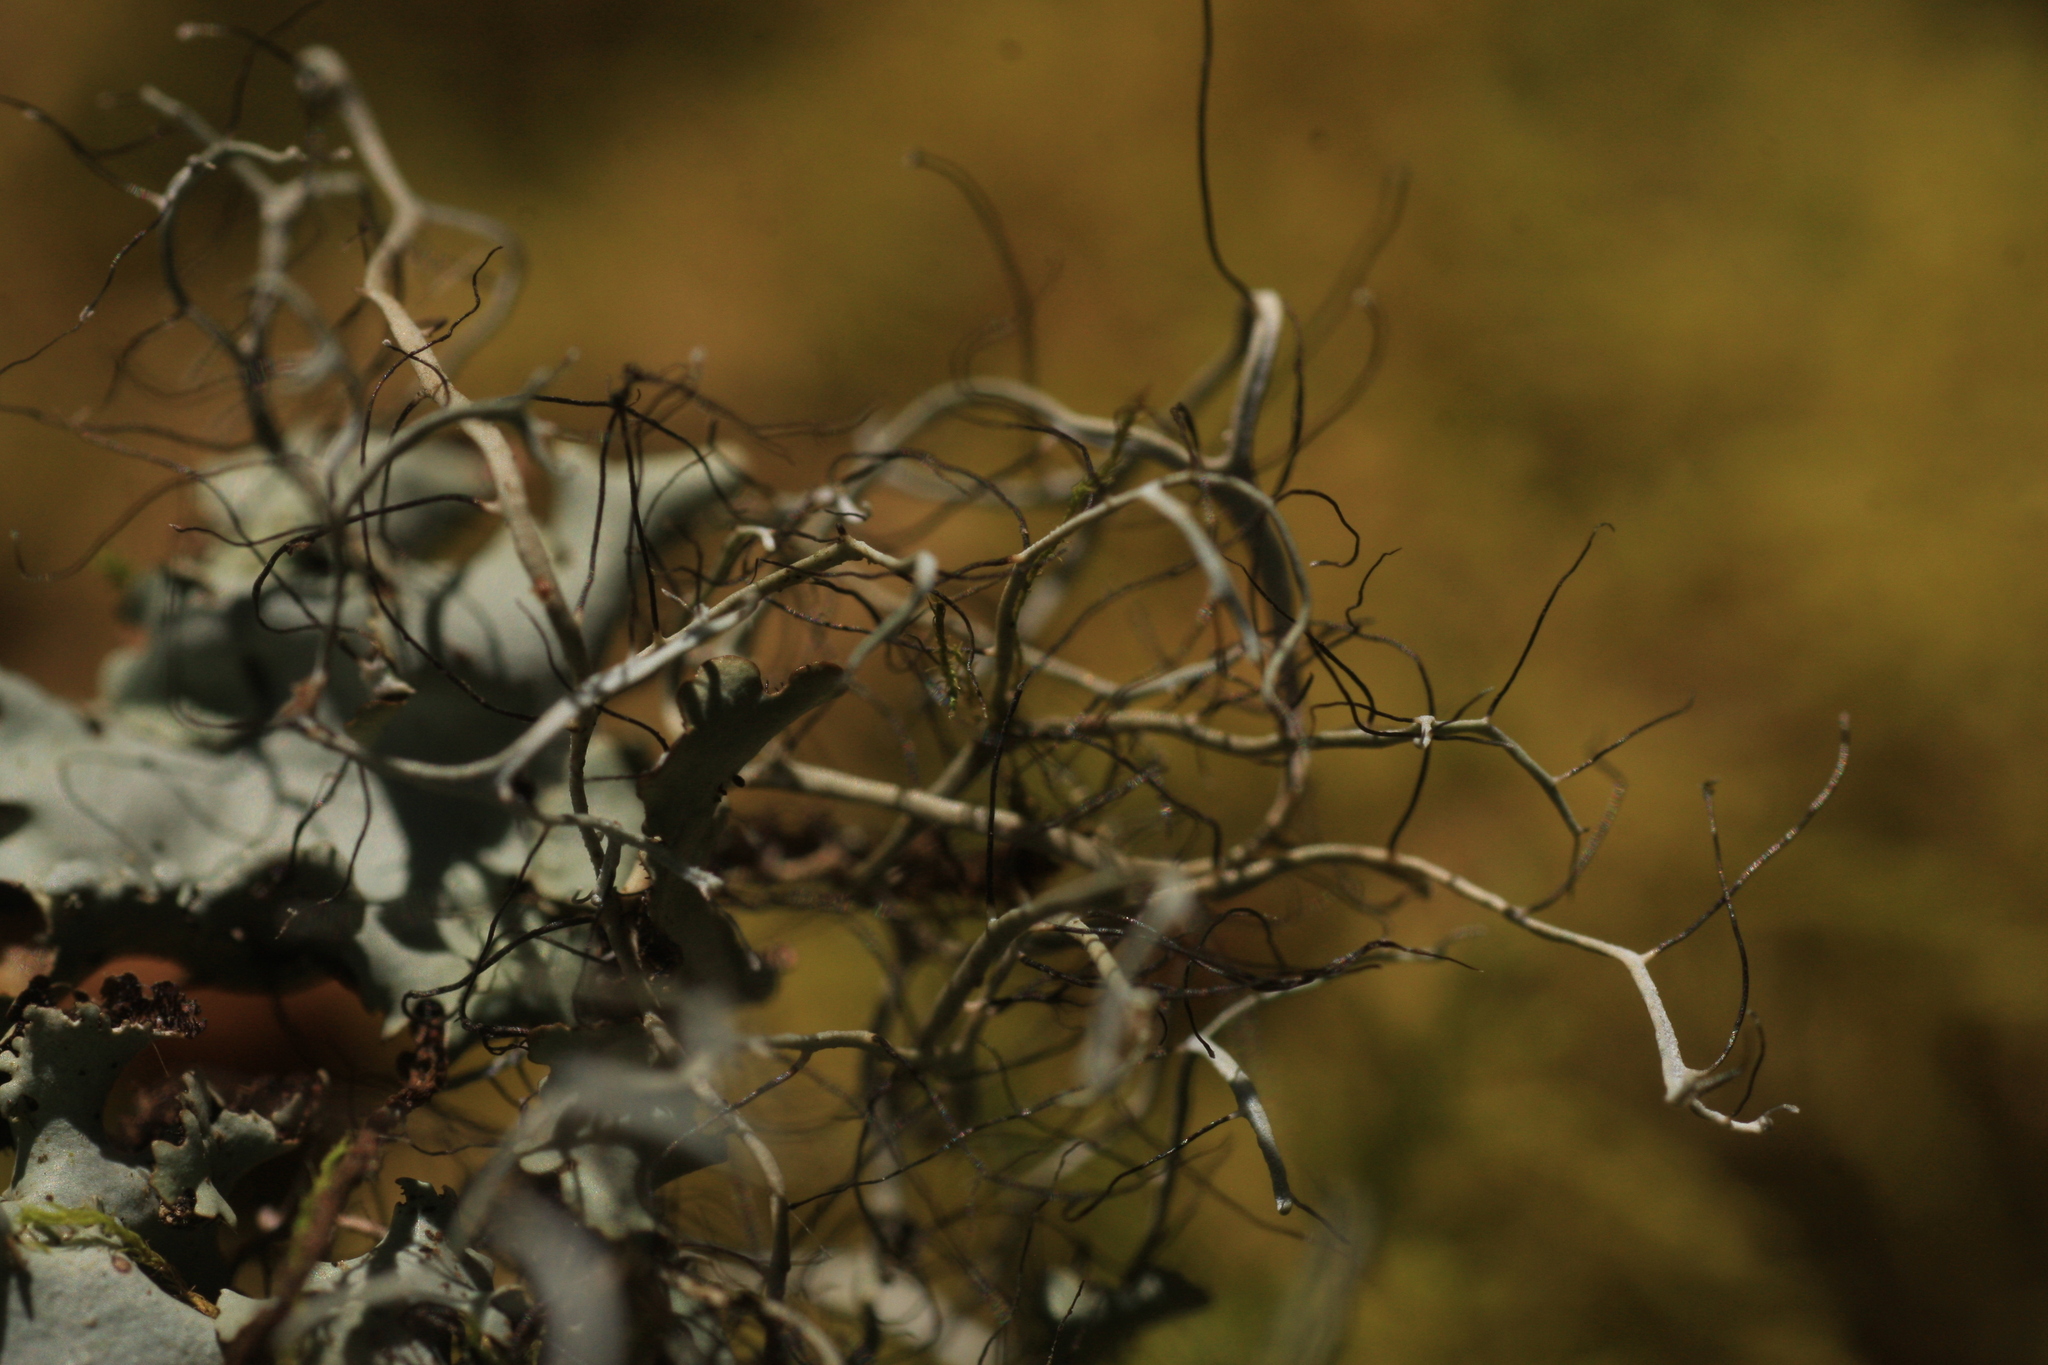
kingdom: Fungi
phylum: Ascomycota
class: Lecanoromycetes
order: Caliciales
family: Physciaceae
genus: Leucodermia
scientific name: Leucodermia boryi
